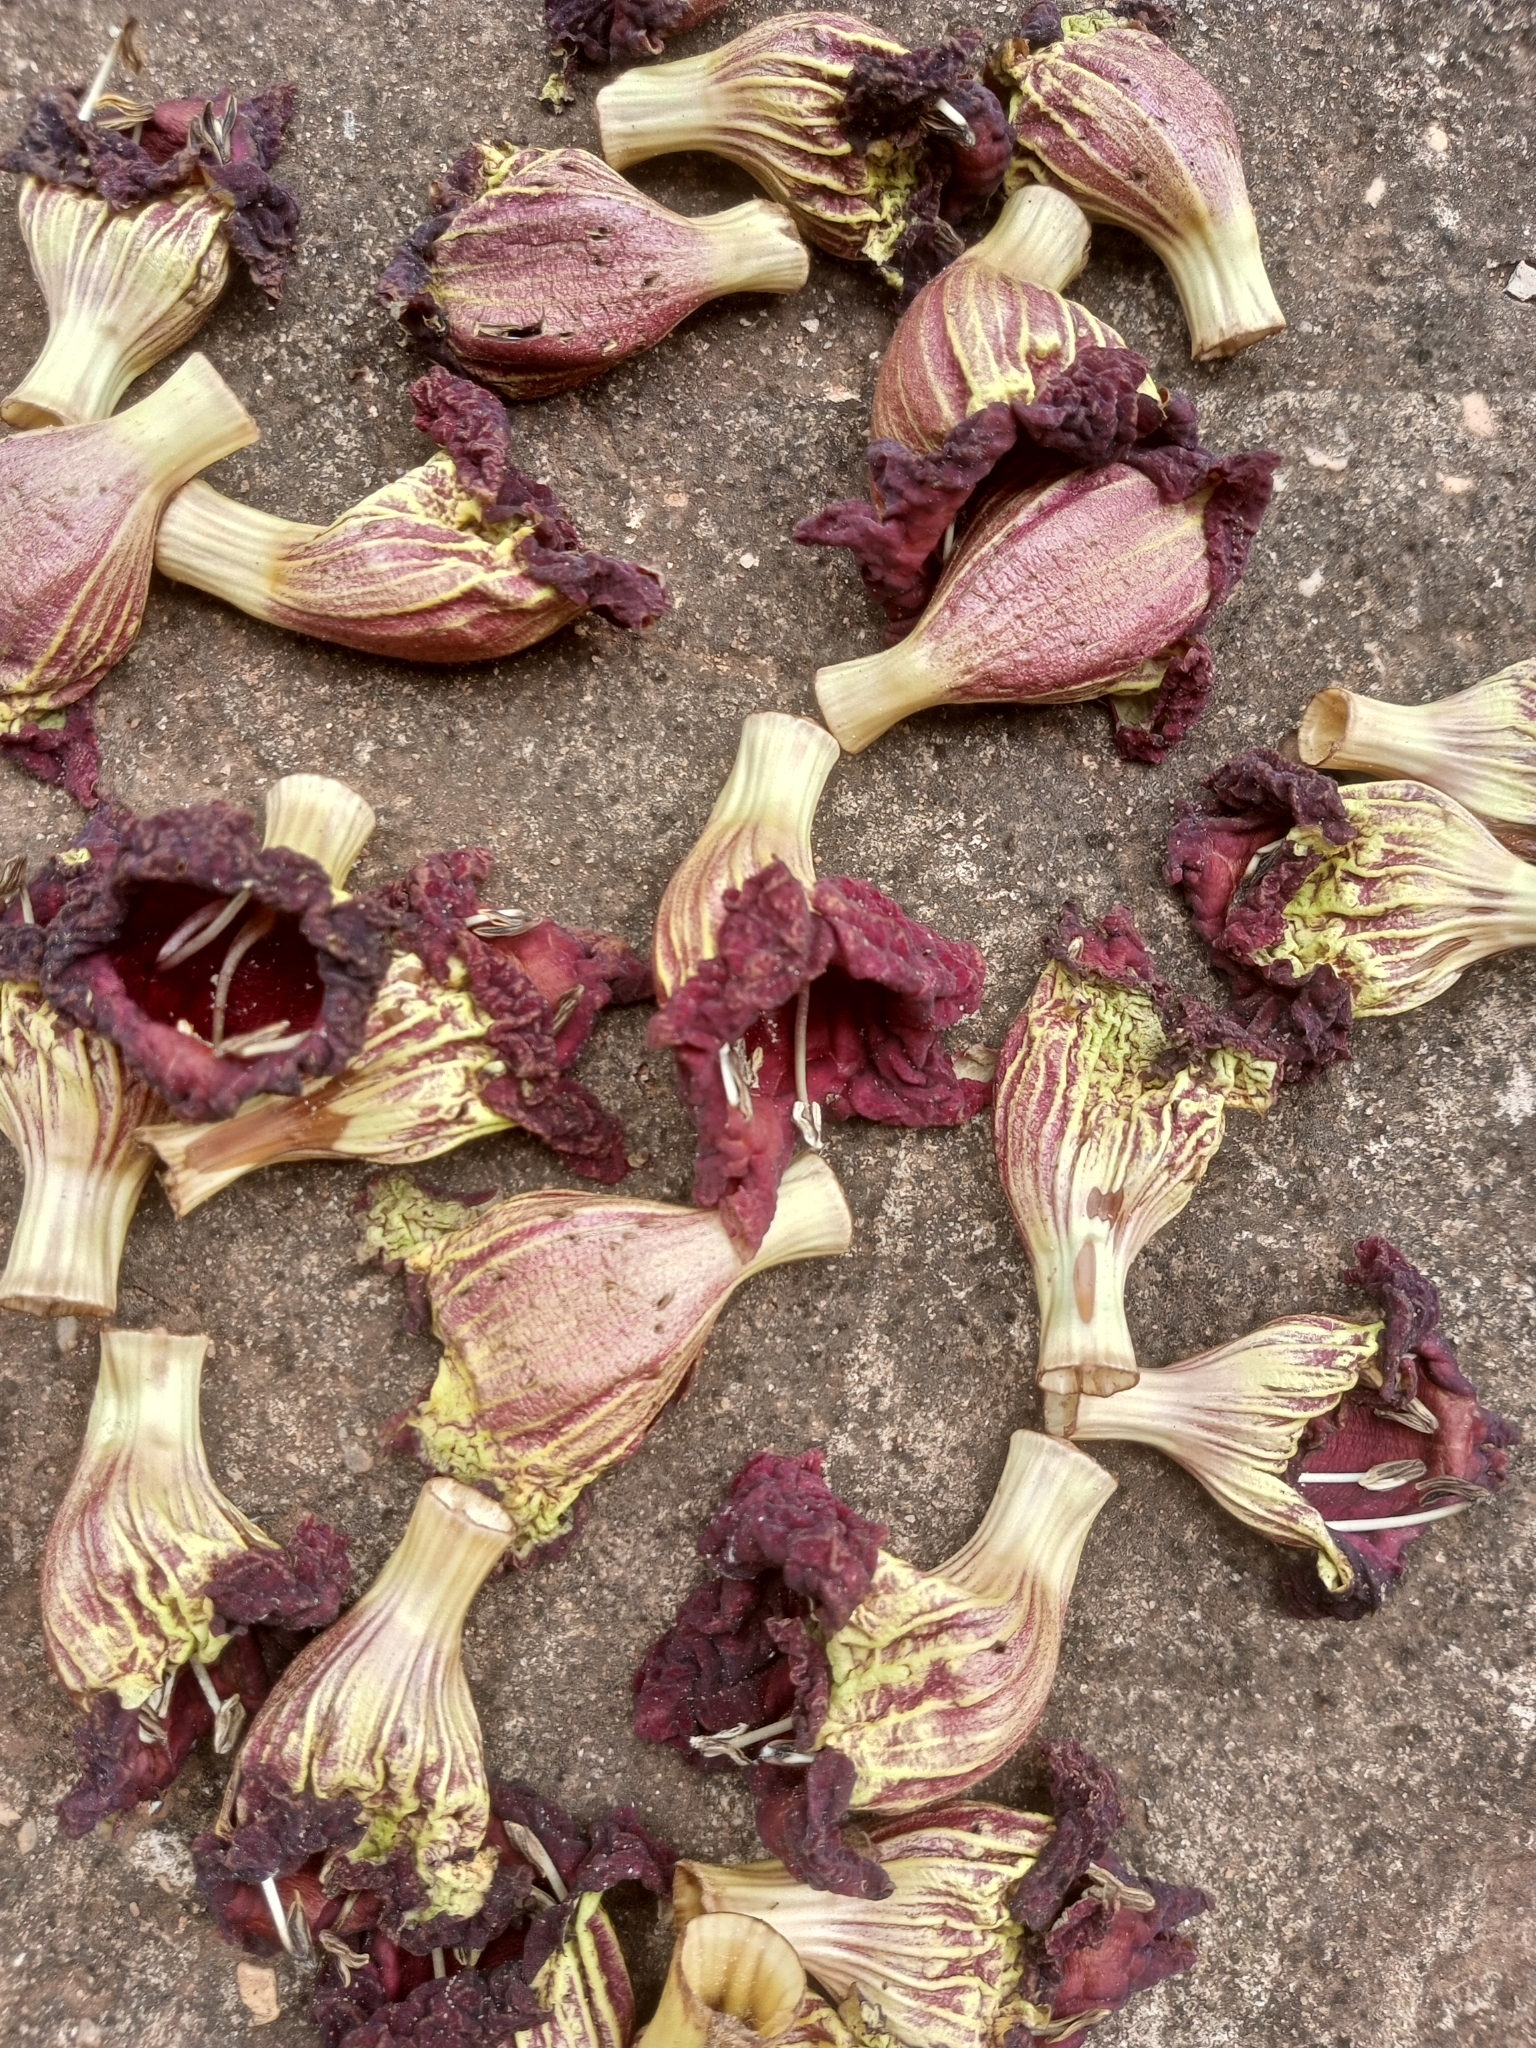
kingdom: Plantae
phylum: Tracheophyta
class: Magnoliopsida
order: Lamiales
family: Bignoniaceae
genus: Kigelia
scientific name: Kigelia africana
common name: Sausage tree
